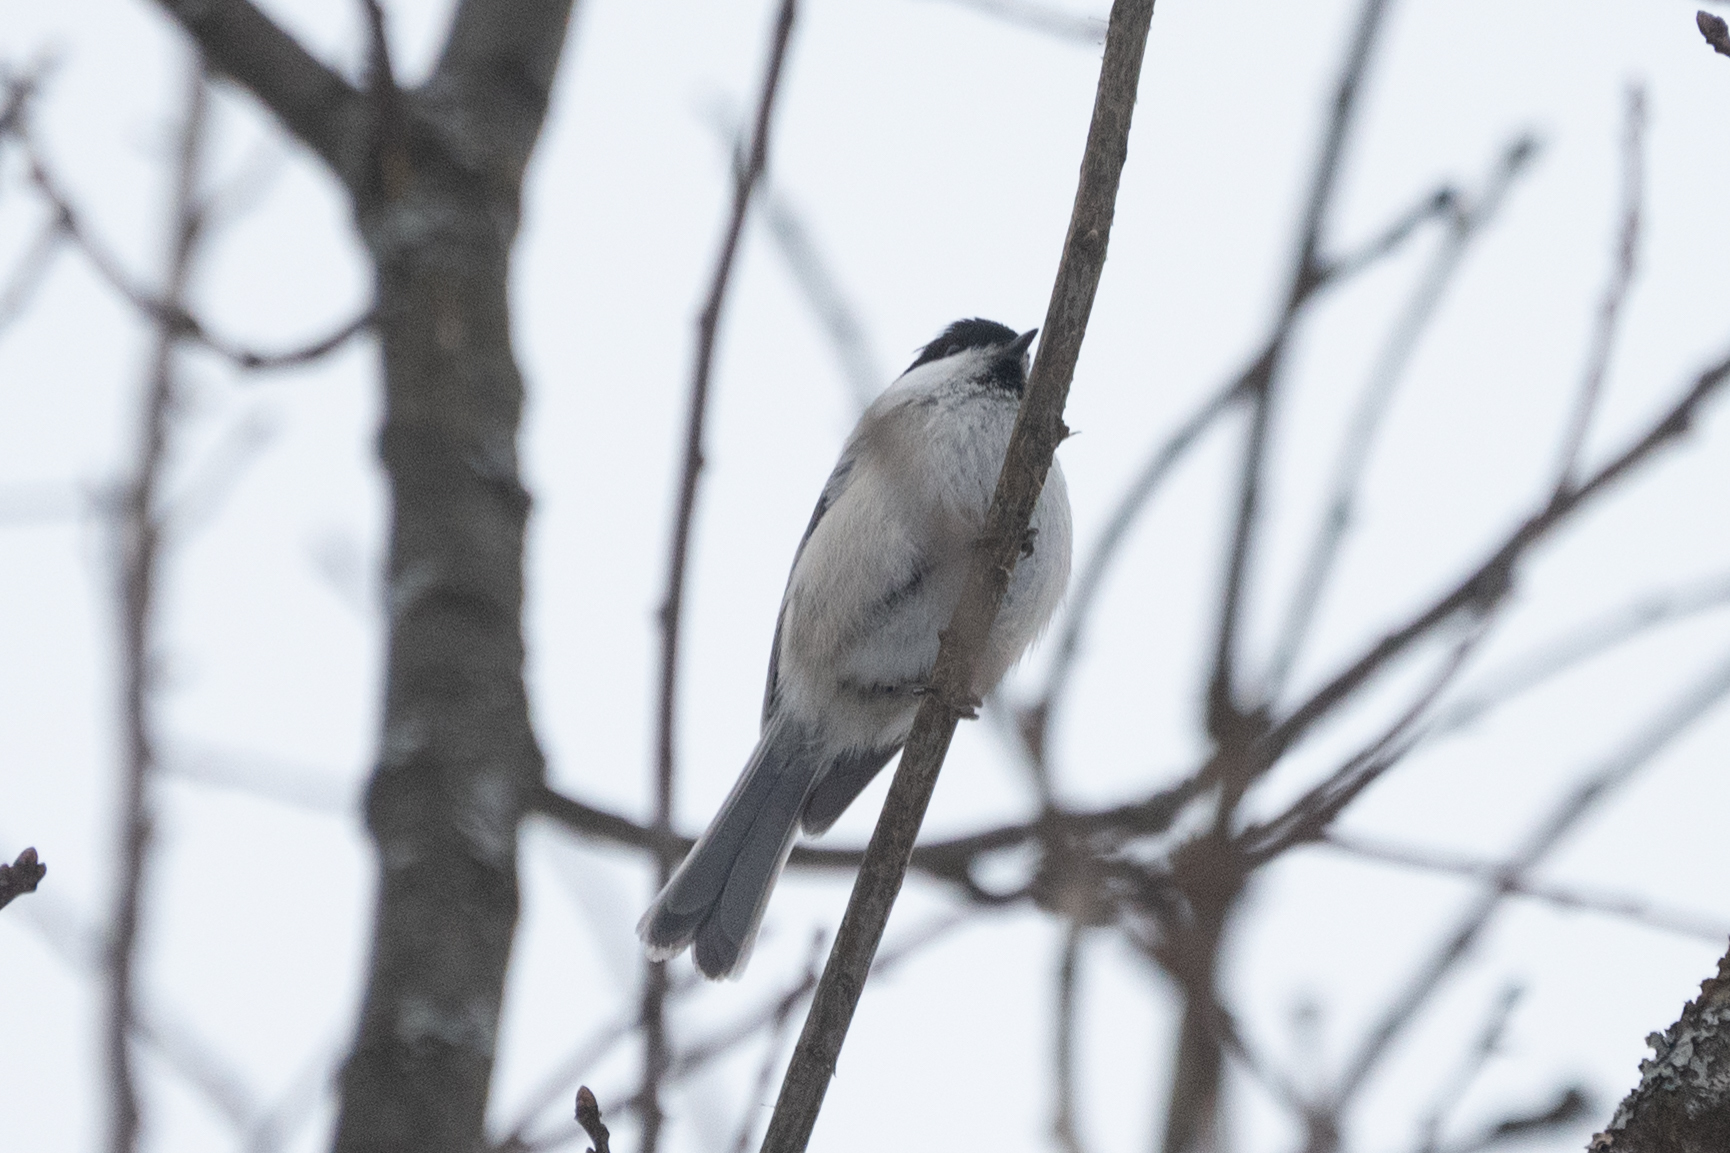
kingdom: Animalia
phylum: Chordata
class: Aves
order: Passeriformes
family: Paridae
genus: Poecile
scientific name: Poecile montanus
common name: Willow tit
